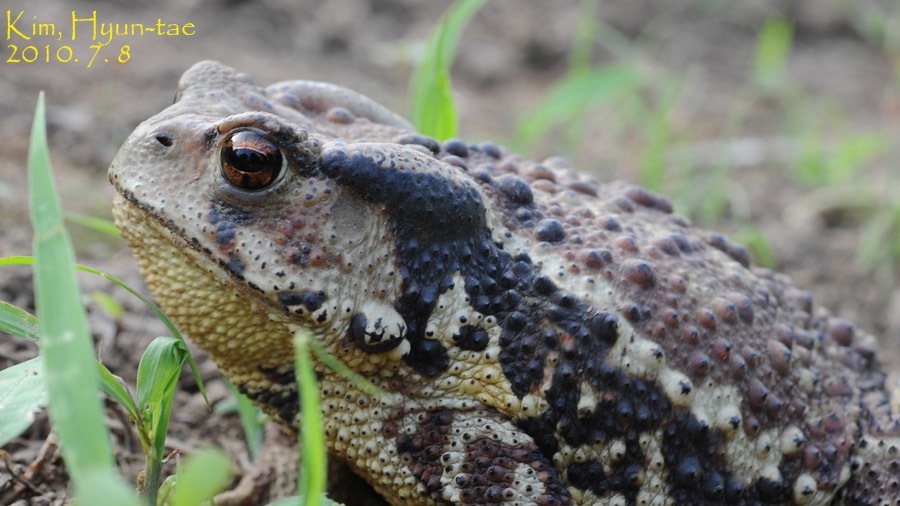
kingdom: Animalia
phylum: Chordata
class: Amphibia
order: Anura
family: Bufonidae
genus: Bufo
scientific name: Bufo gargarizans
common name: Asiatic toad
